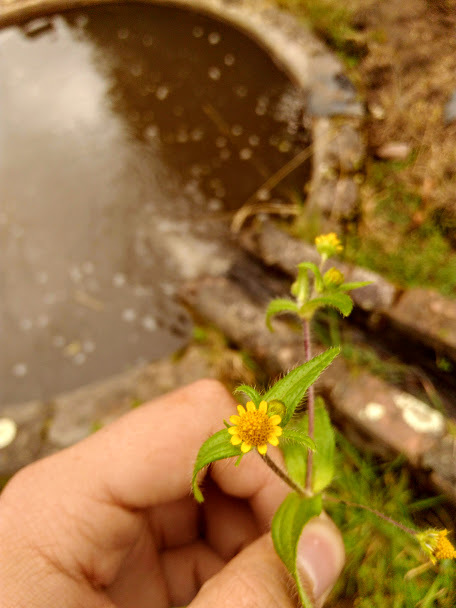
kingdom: Plantae
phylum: Tracheophyta
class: Magnoliopsida
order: Asterales
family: Asteraceae
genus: Jaegeria
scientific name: Jaegeria hirta
